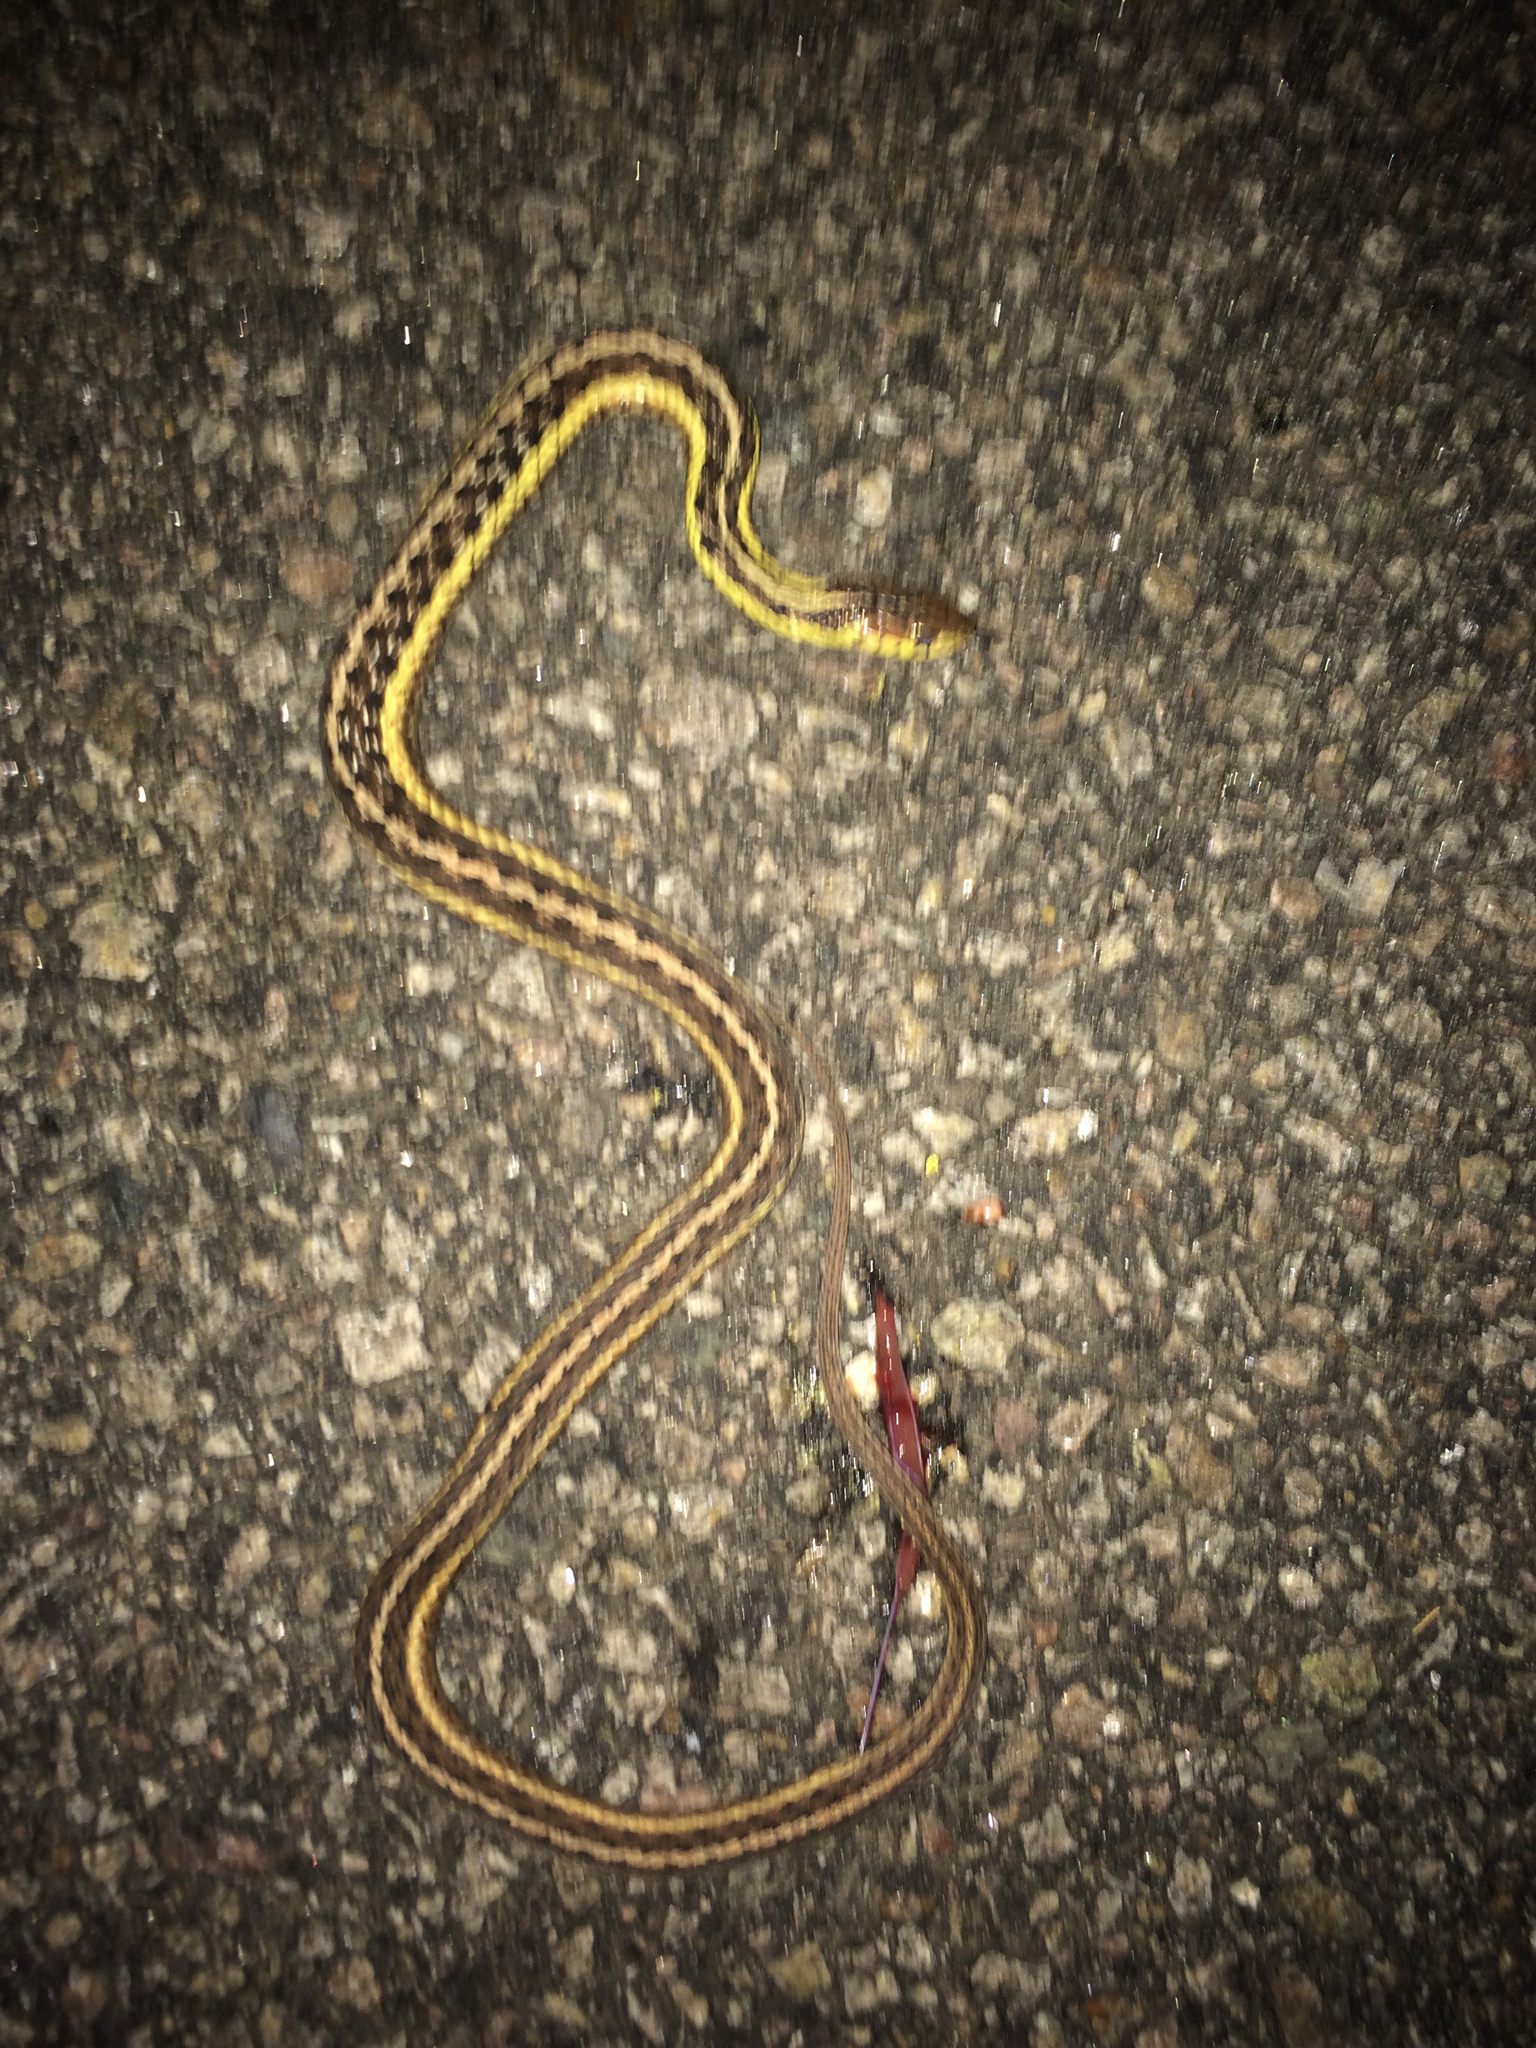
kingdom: Animalia
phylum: Chordata
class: Squamata
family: Colubridae
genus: Thamnophis
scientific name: Thamnophis sirtalis
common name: Common garter snake
